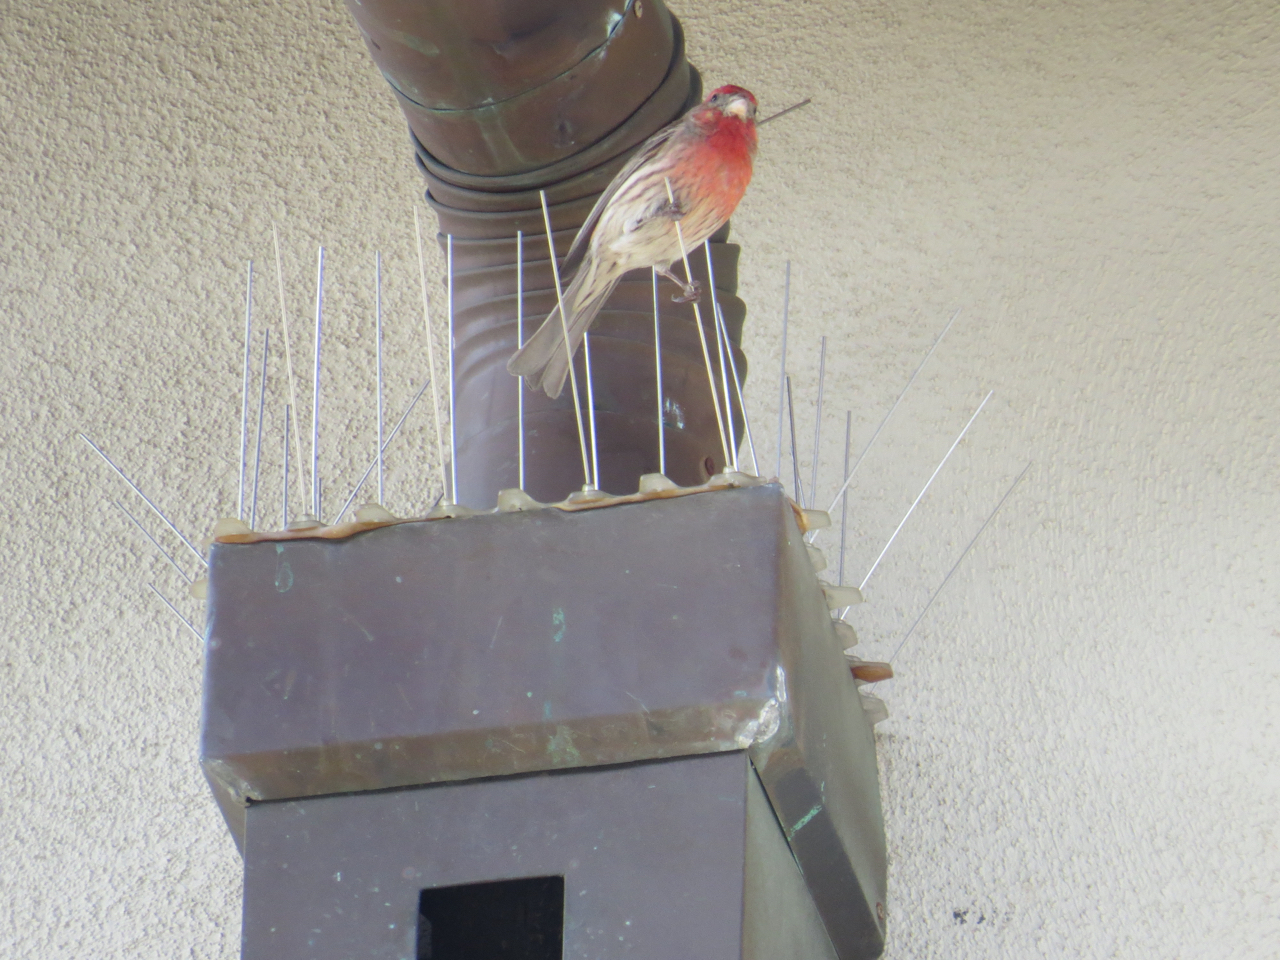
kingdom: Animalia
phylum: Chordata
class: Aves
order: Passeriformes
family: Fringillidae
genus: Haemorhous
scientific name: Haemorhous mexicanus
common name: House finch
